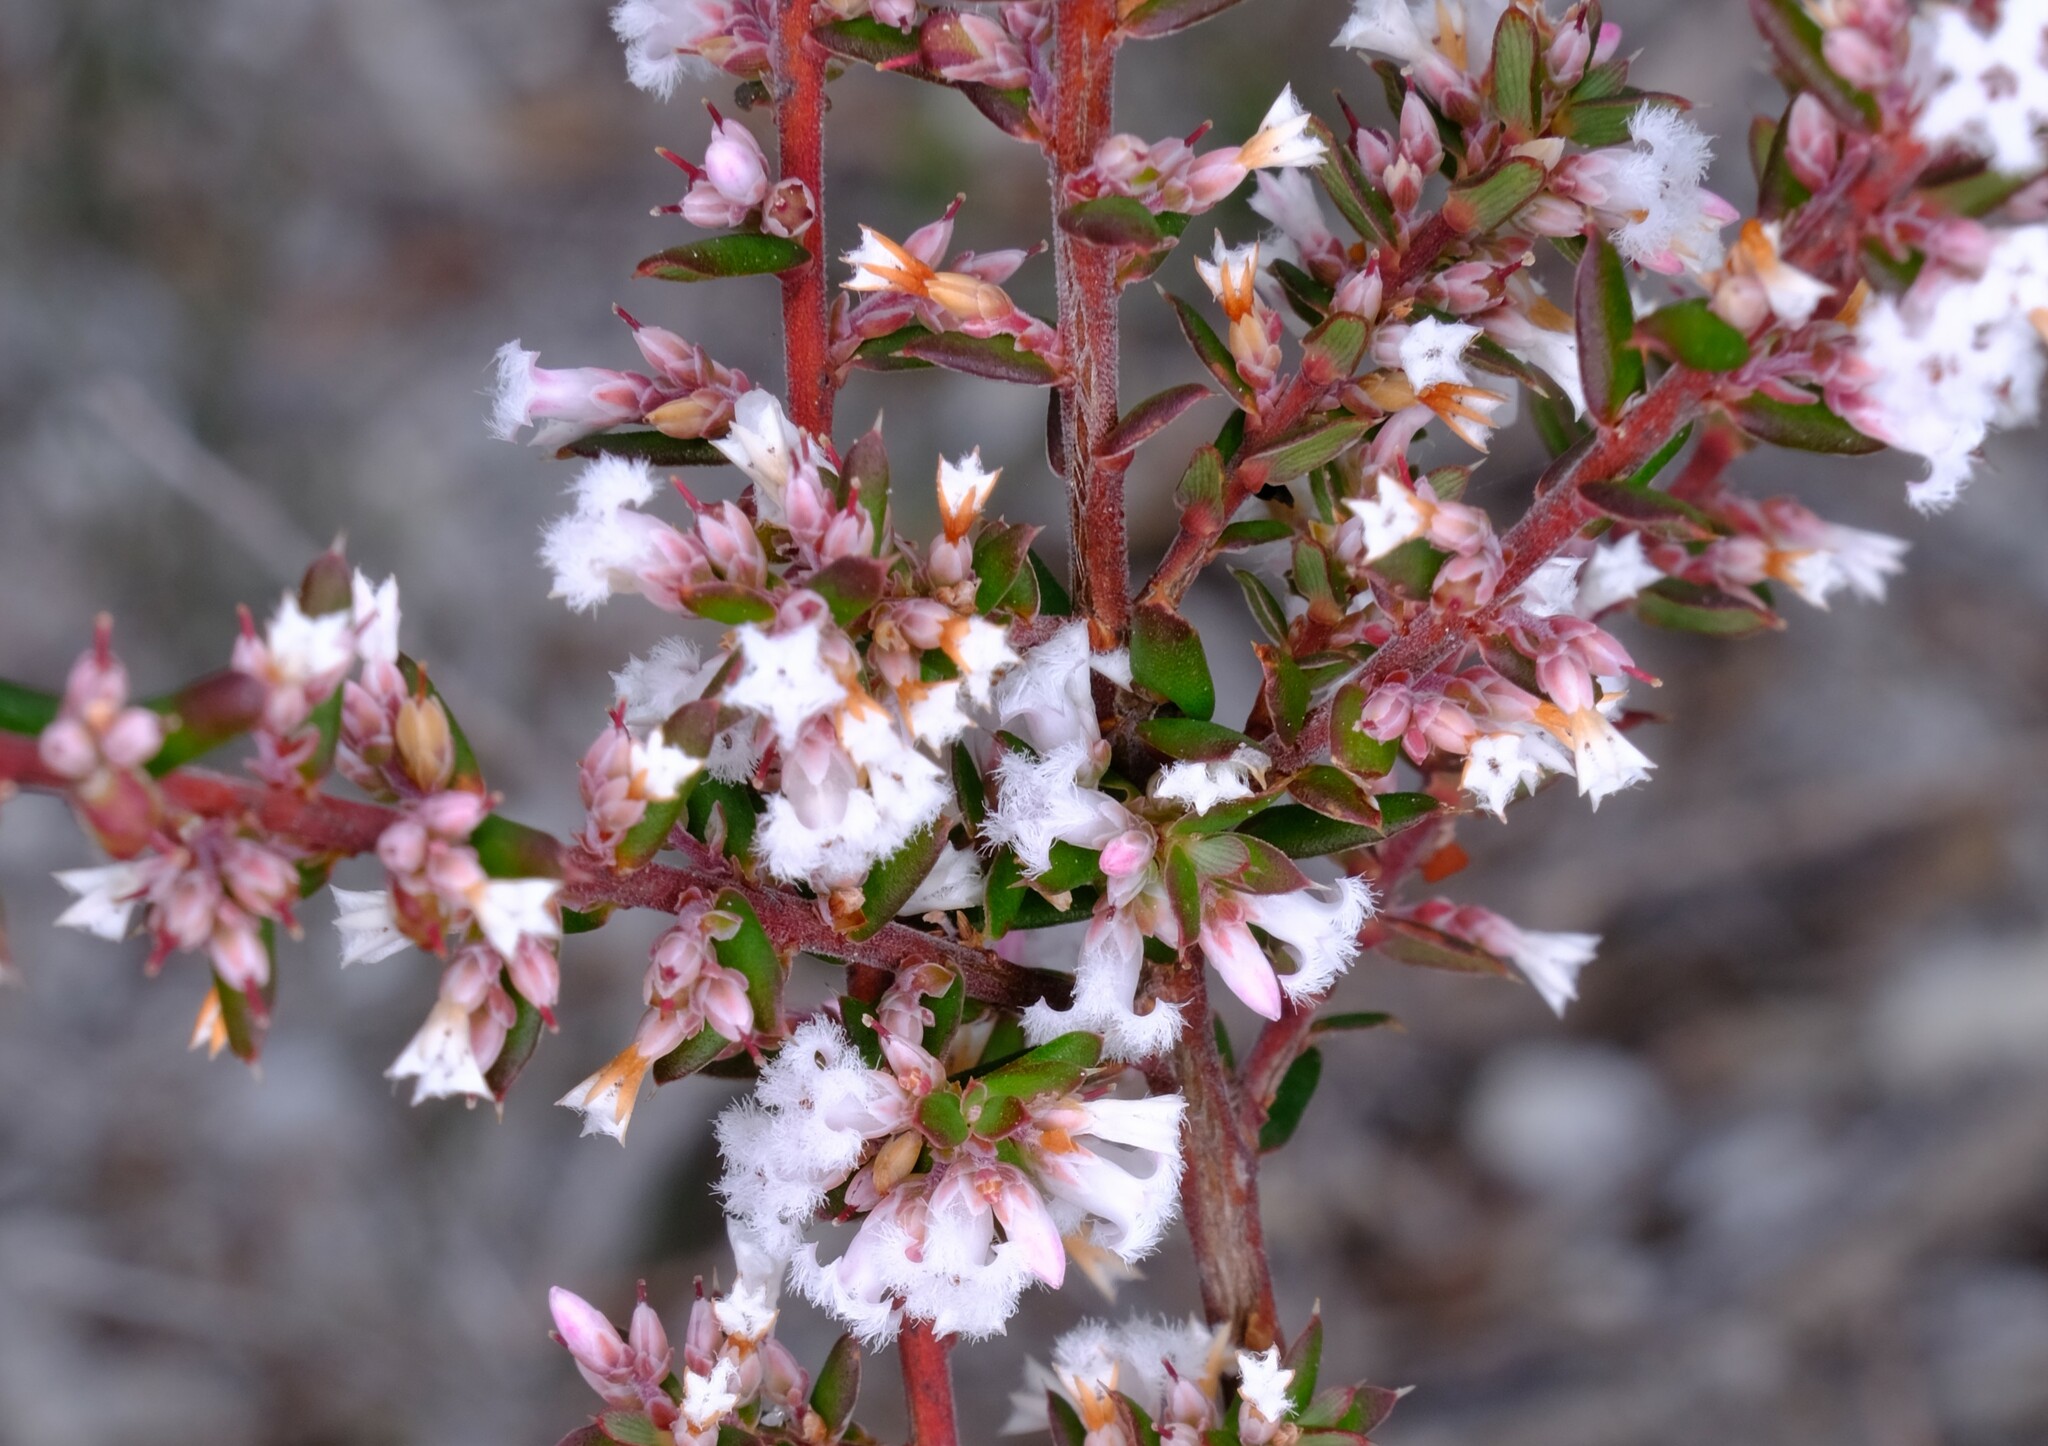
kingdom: Plantae
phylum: Tracheophyta
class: Magnoliopsida
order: Ericales
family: Ericaceae
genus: Styphelia
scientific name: Styphelia ericoides
